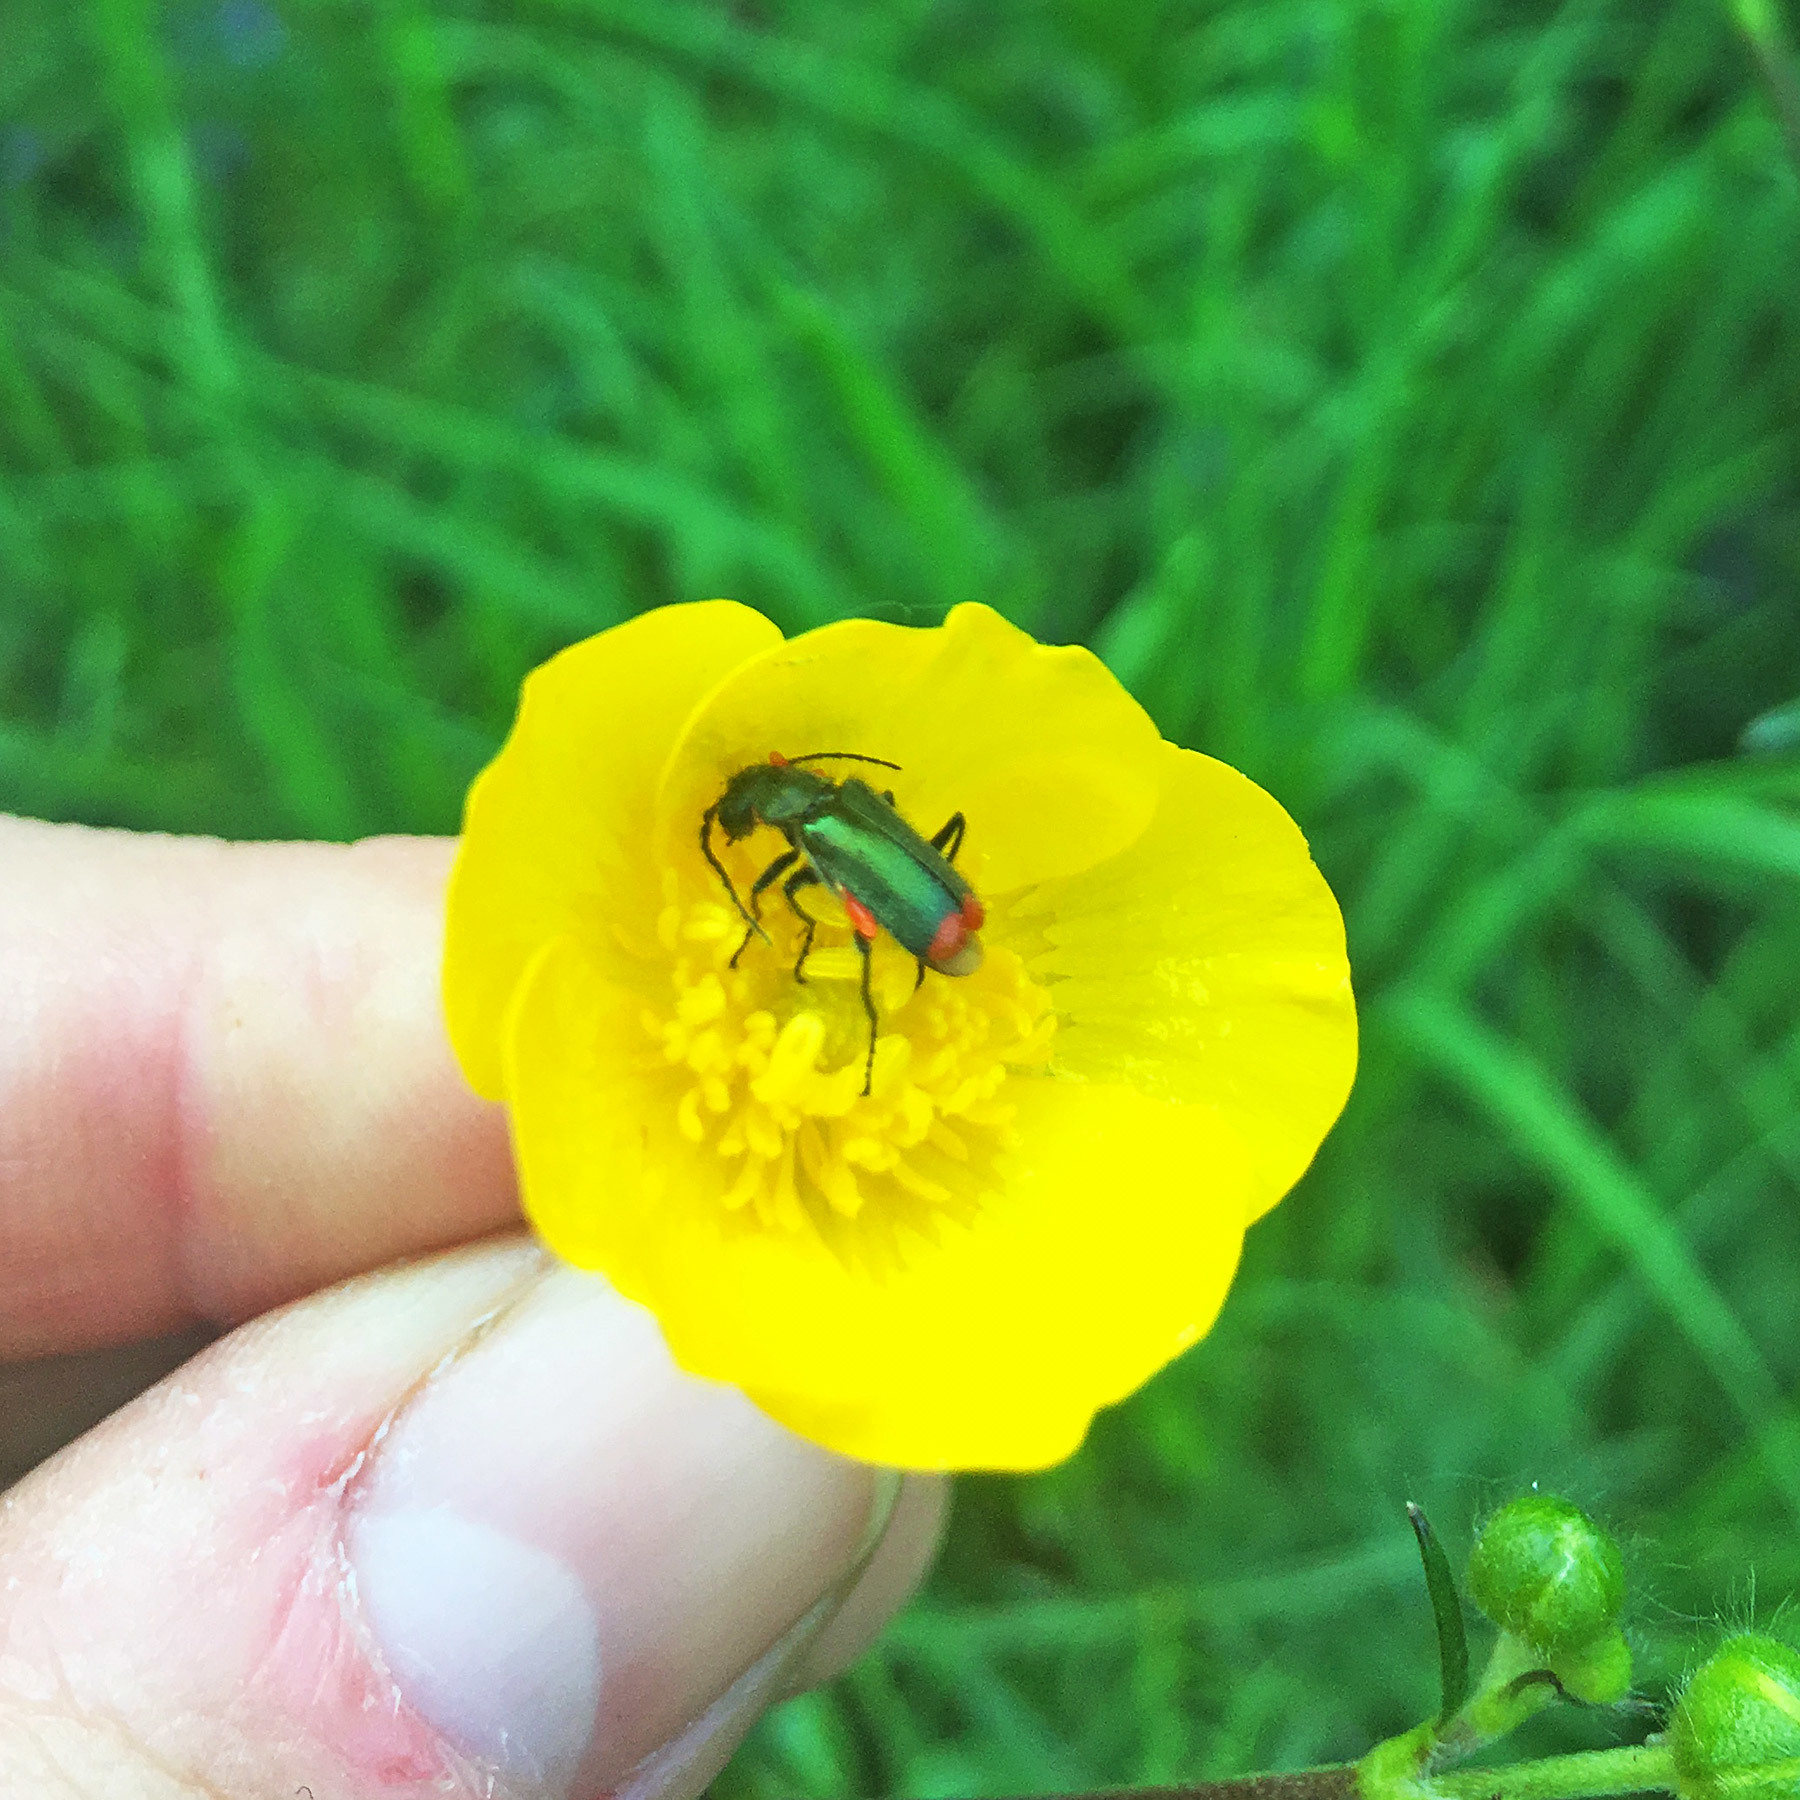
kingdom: Animalia
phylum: Arthropoda
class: Insecta
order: Coleoptera
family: Melyridae
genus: Malachius
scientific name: Malachius bipustulatus
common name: Malachite beetle
